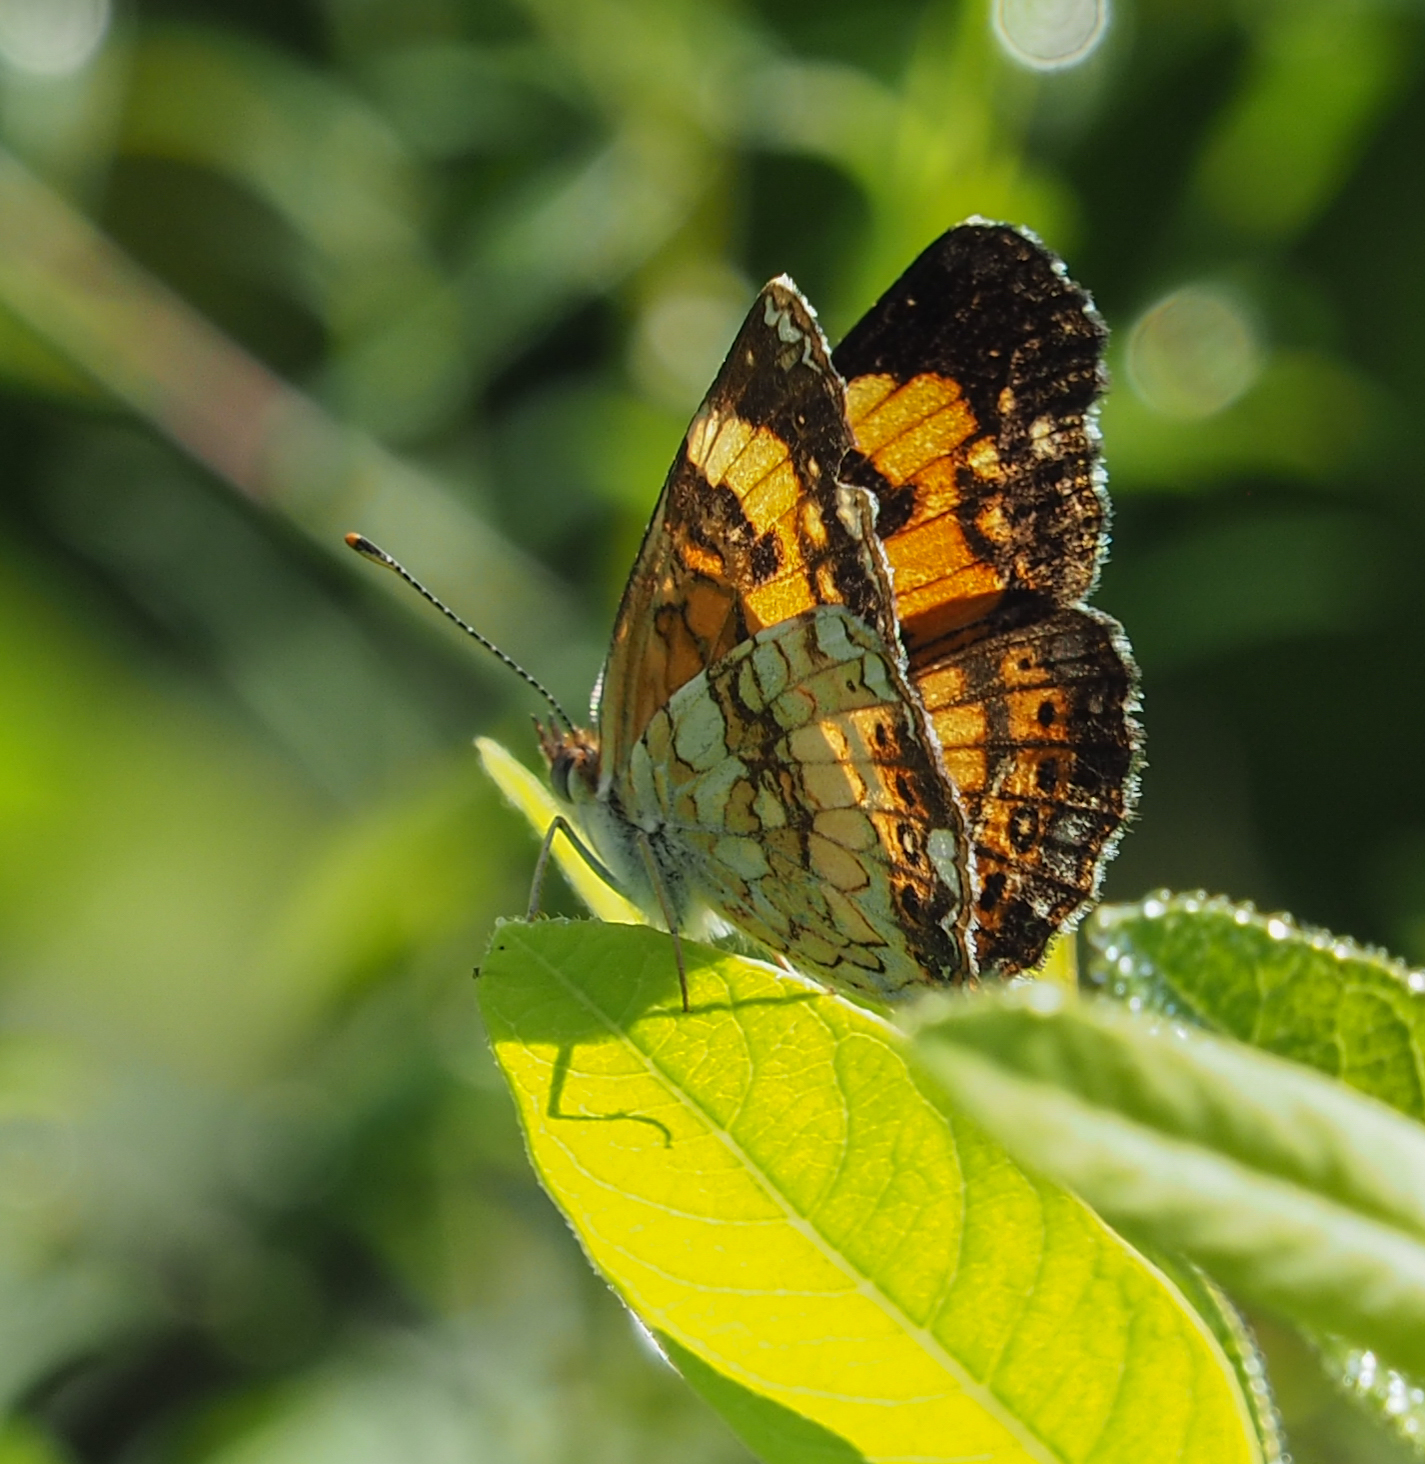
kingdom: Animalia
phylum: Arthropoda
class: Insecta
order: Lepidoptera
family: Nymphalidae
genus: Chlosyne
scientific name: Chlosyne nycteis
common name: Silvery checkerspot
